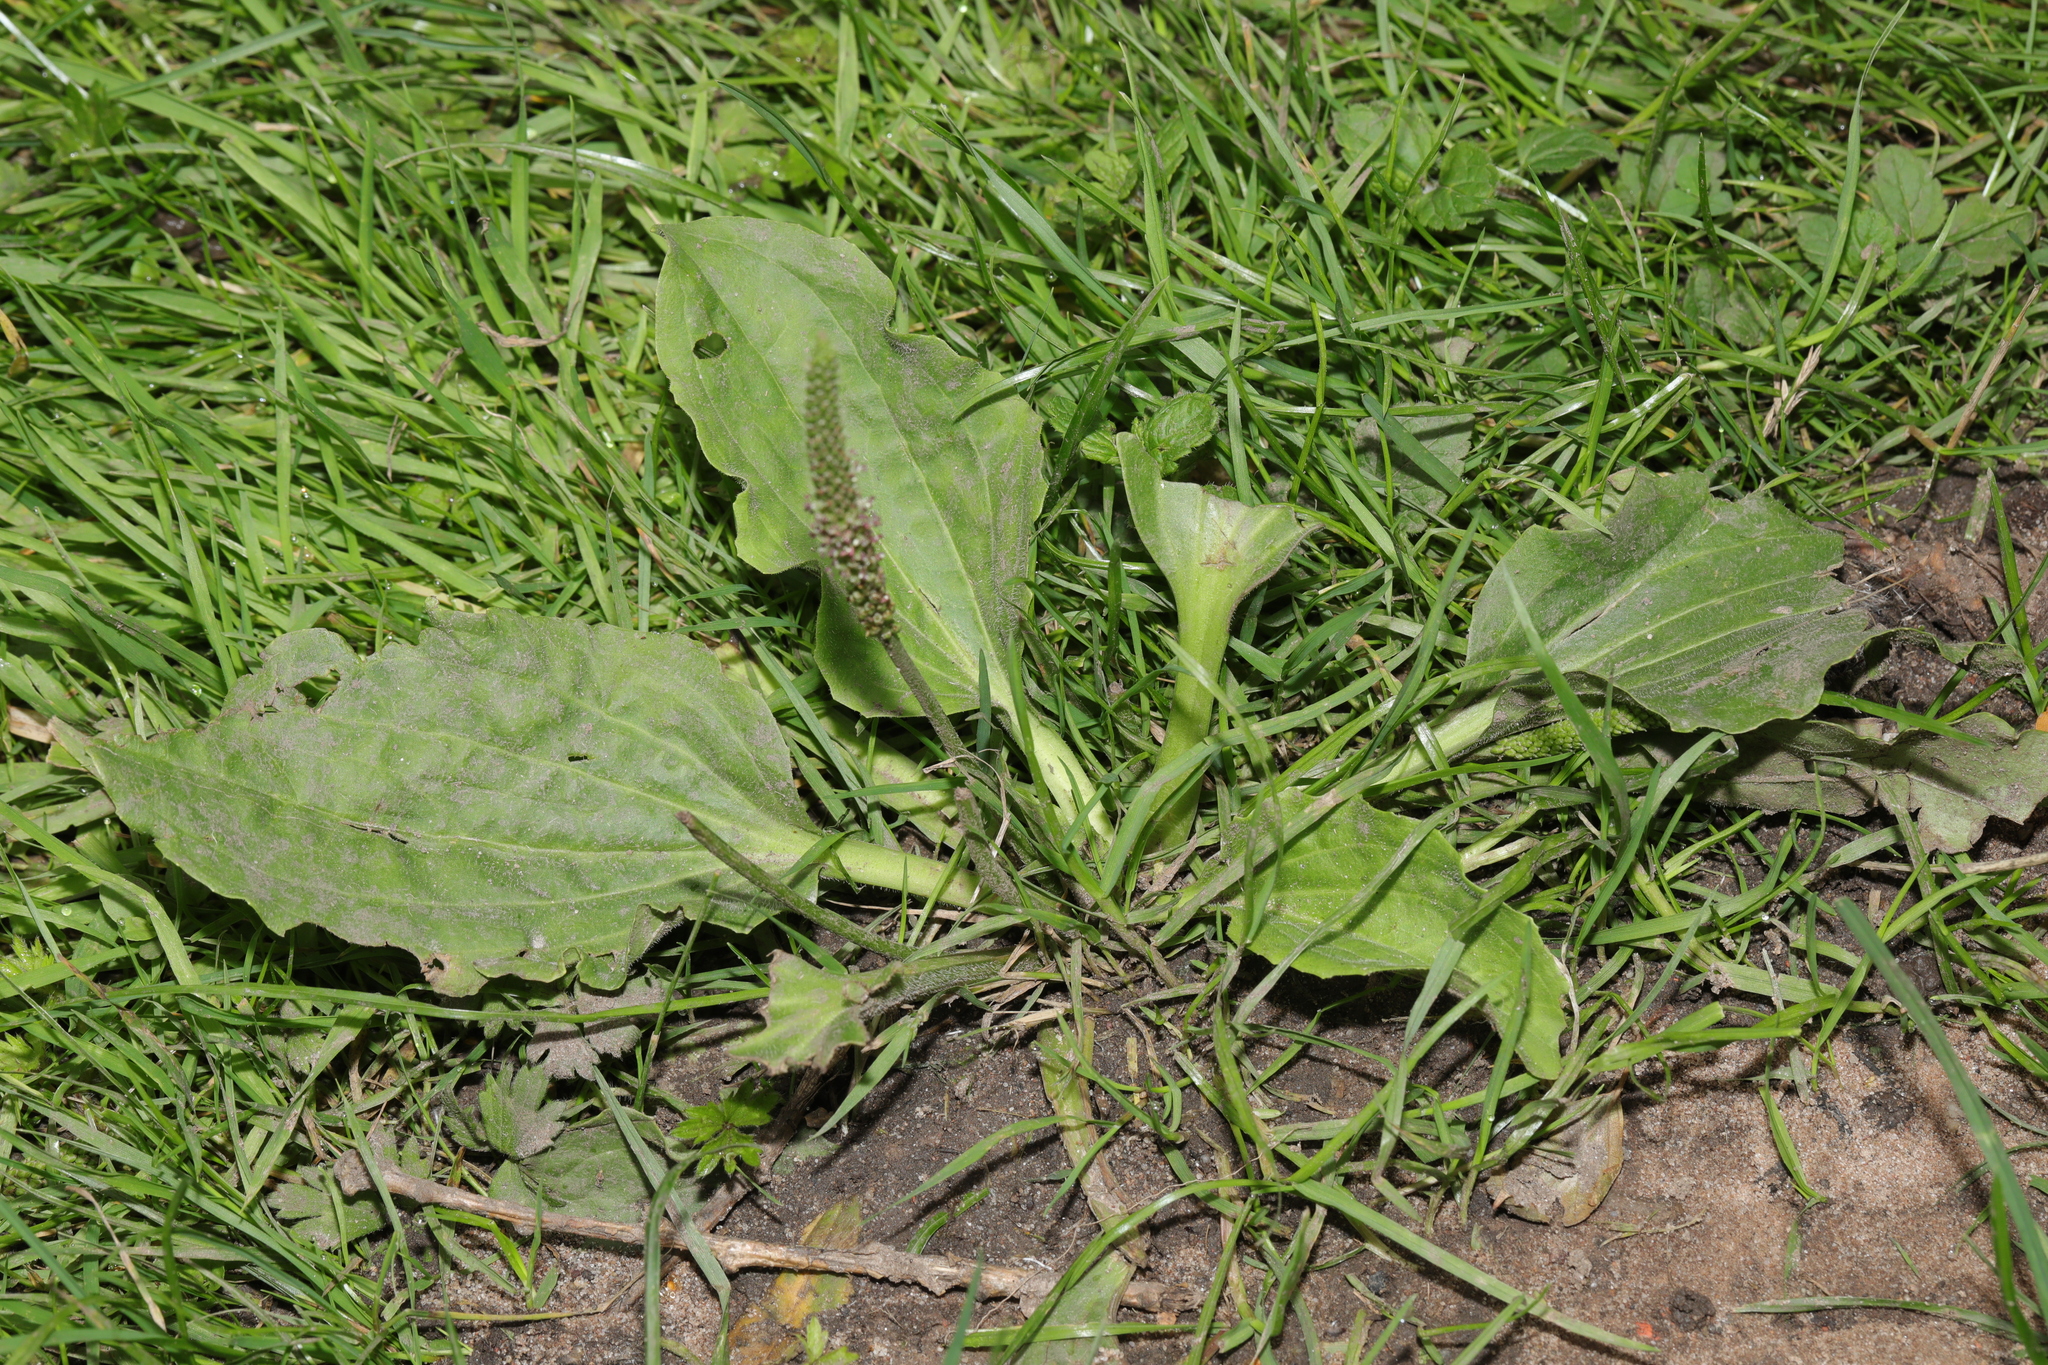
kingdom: Plantae
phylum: Tracheophyta
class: Magnoliopsida
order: Lamiales
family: Plantaginaceae
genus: Plantago
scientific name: Plantago major
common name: Common plantain
